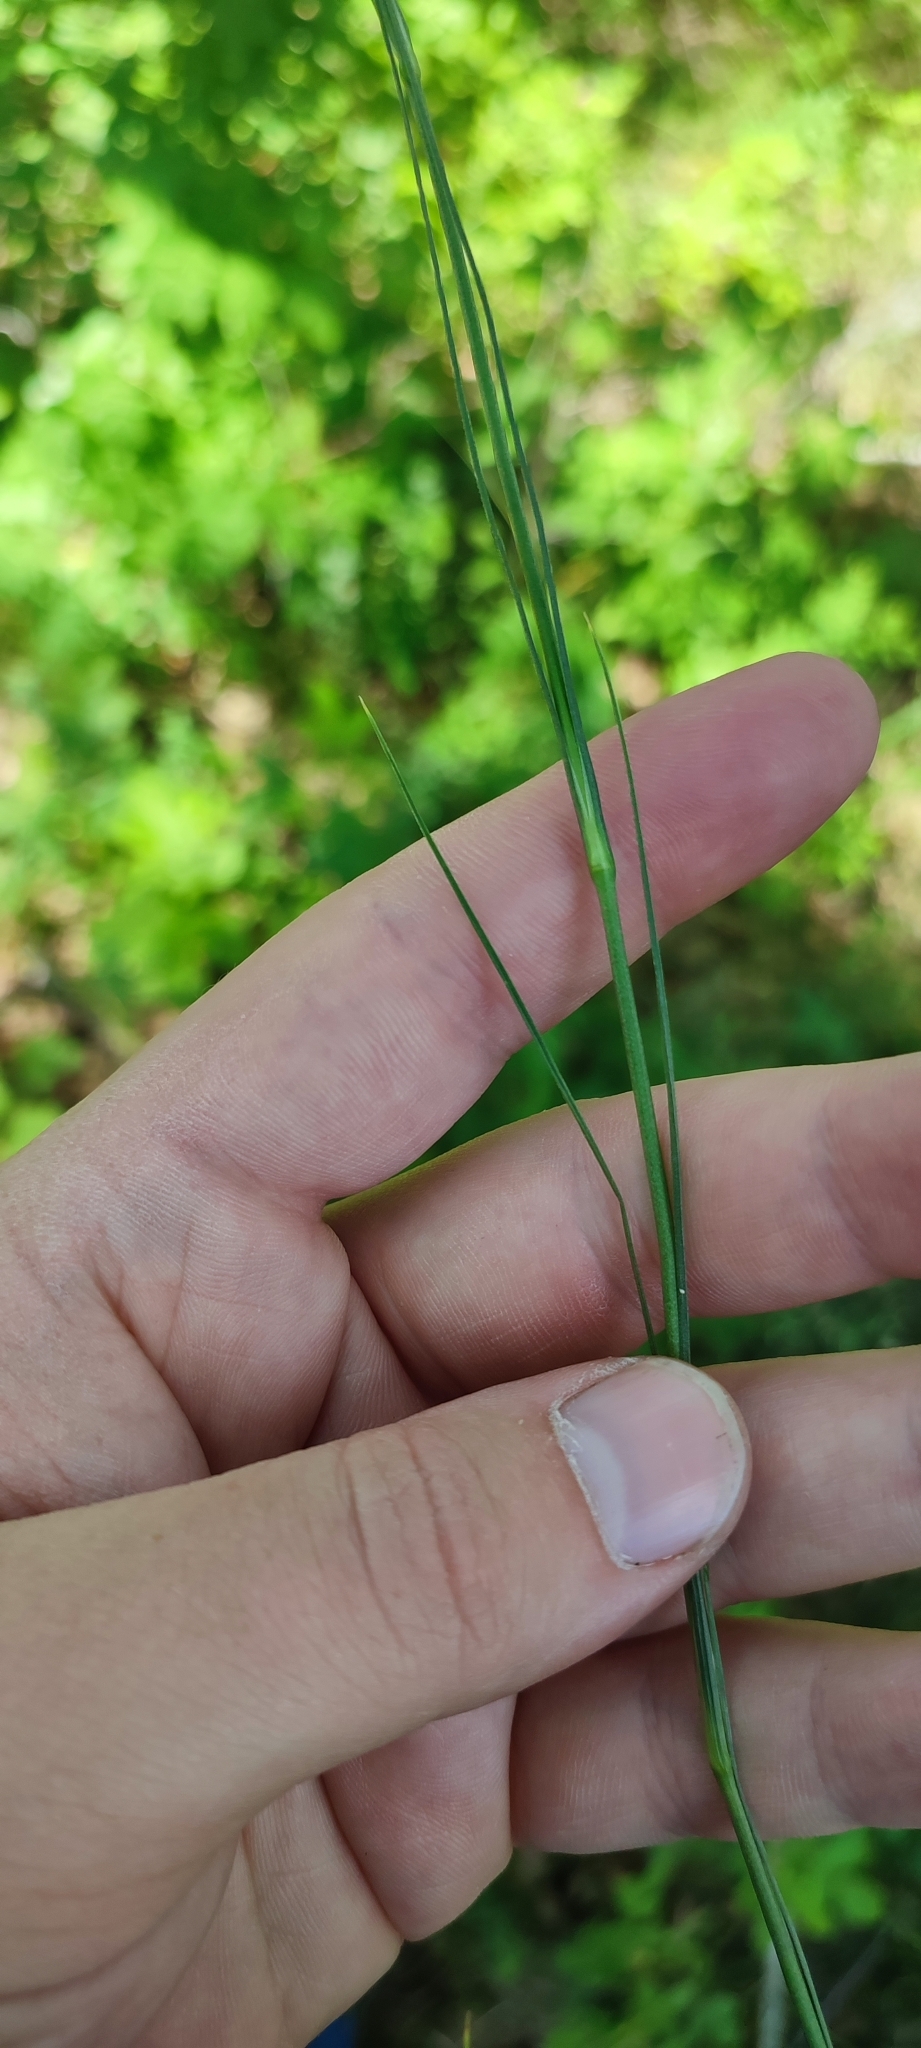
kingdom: Plantae
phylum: Tracheophyta
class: Magnoliopsida
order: Caryophyllales
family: Caryophyllaceae
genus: Eremogone
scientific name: Eremogone longifolia
